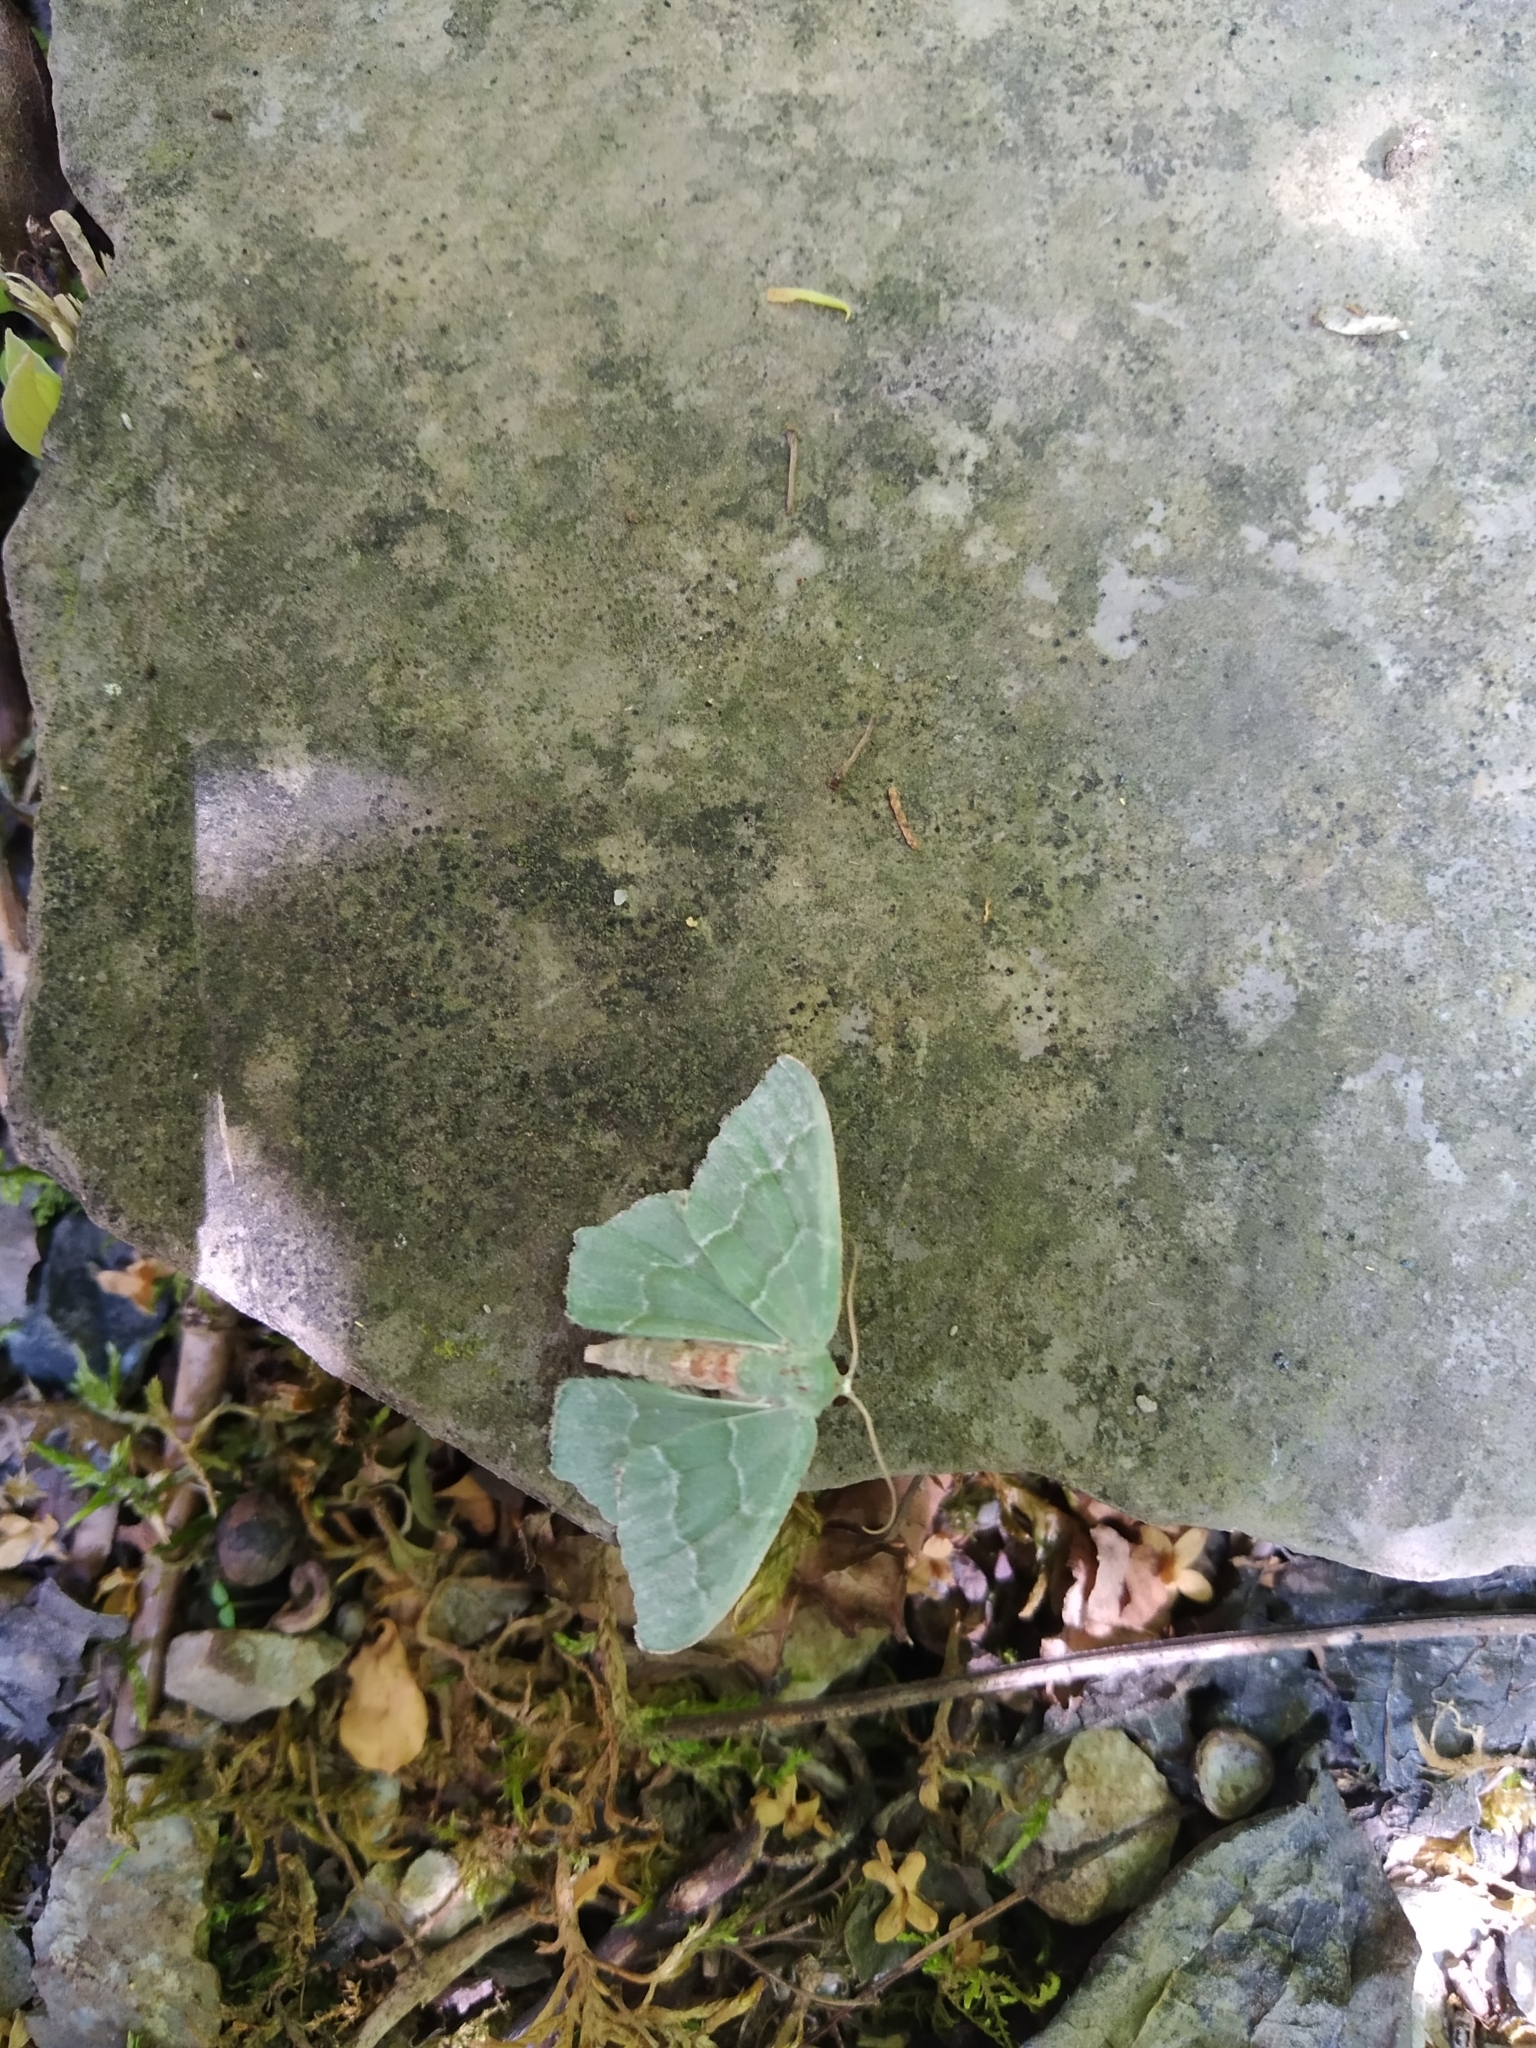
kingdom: Animalia
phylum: Arthropoda
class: Insecta
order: Lepidoptera
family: Geometridae
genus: Hemithea
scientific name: Hemithea aestivaria
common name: Common emerald
